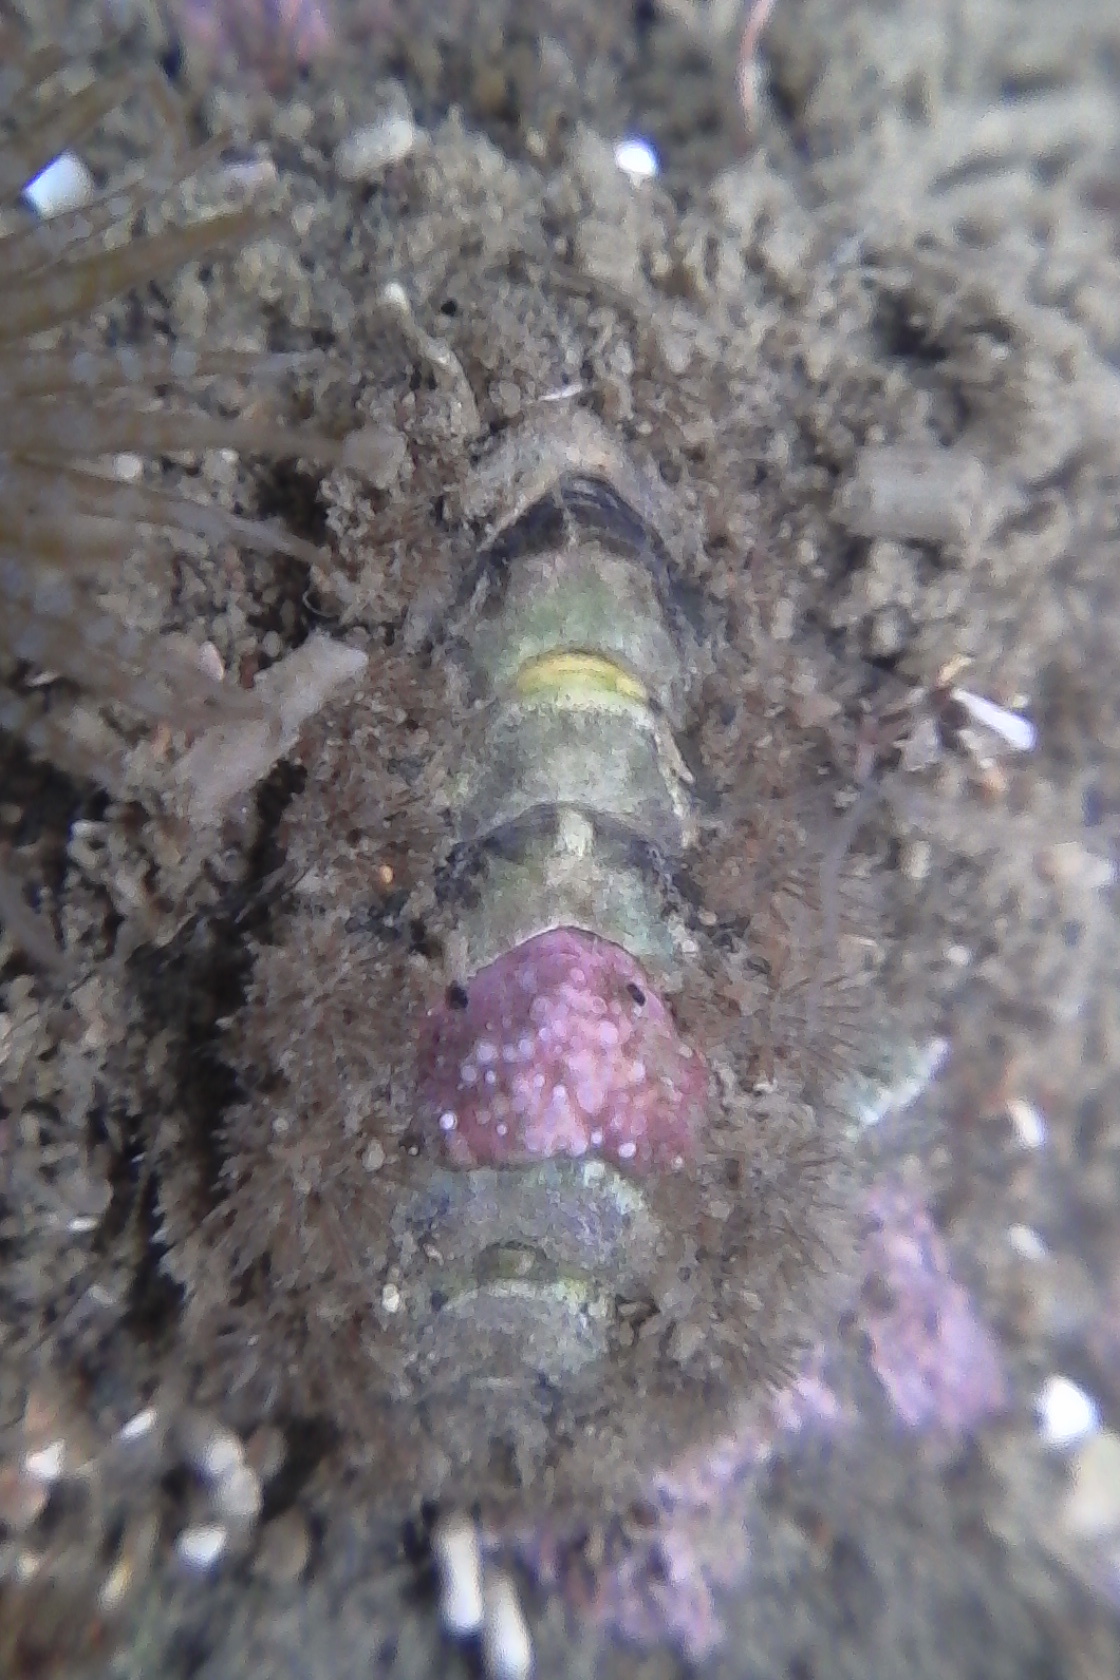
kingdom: Animalia
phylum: Mollusca
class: Polyplacophora
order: Chitonida
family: Acanthochitonidae
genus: Acanthochitona
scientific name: Acanthochitona zelandica
